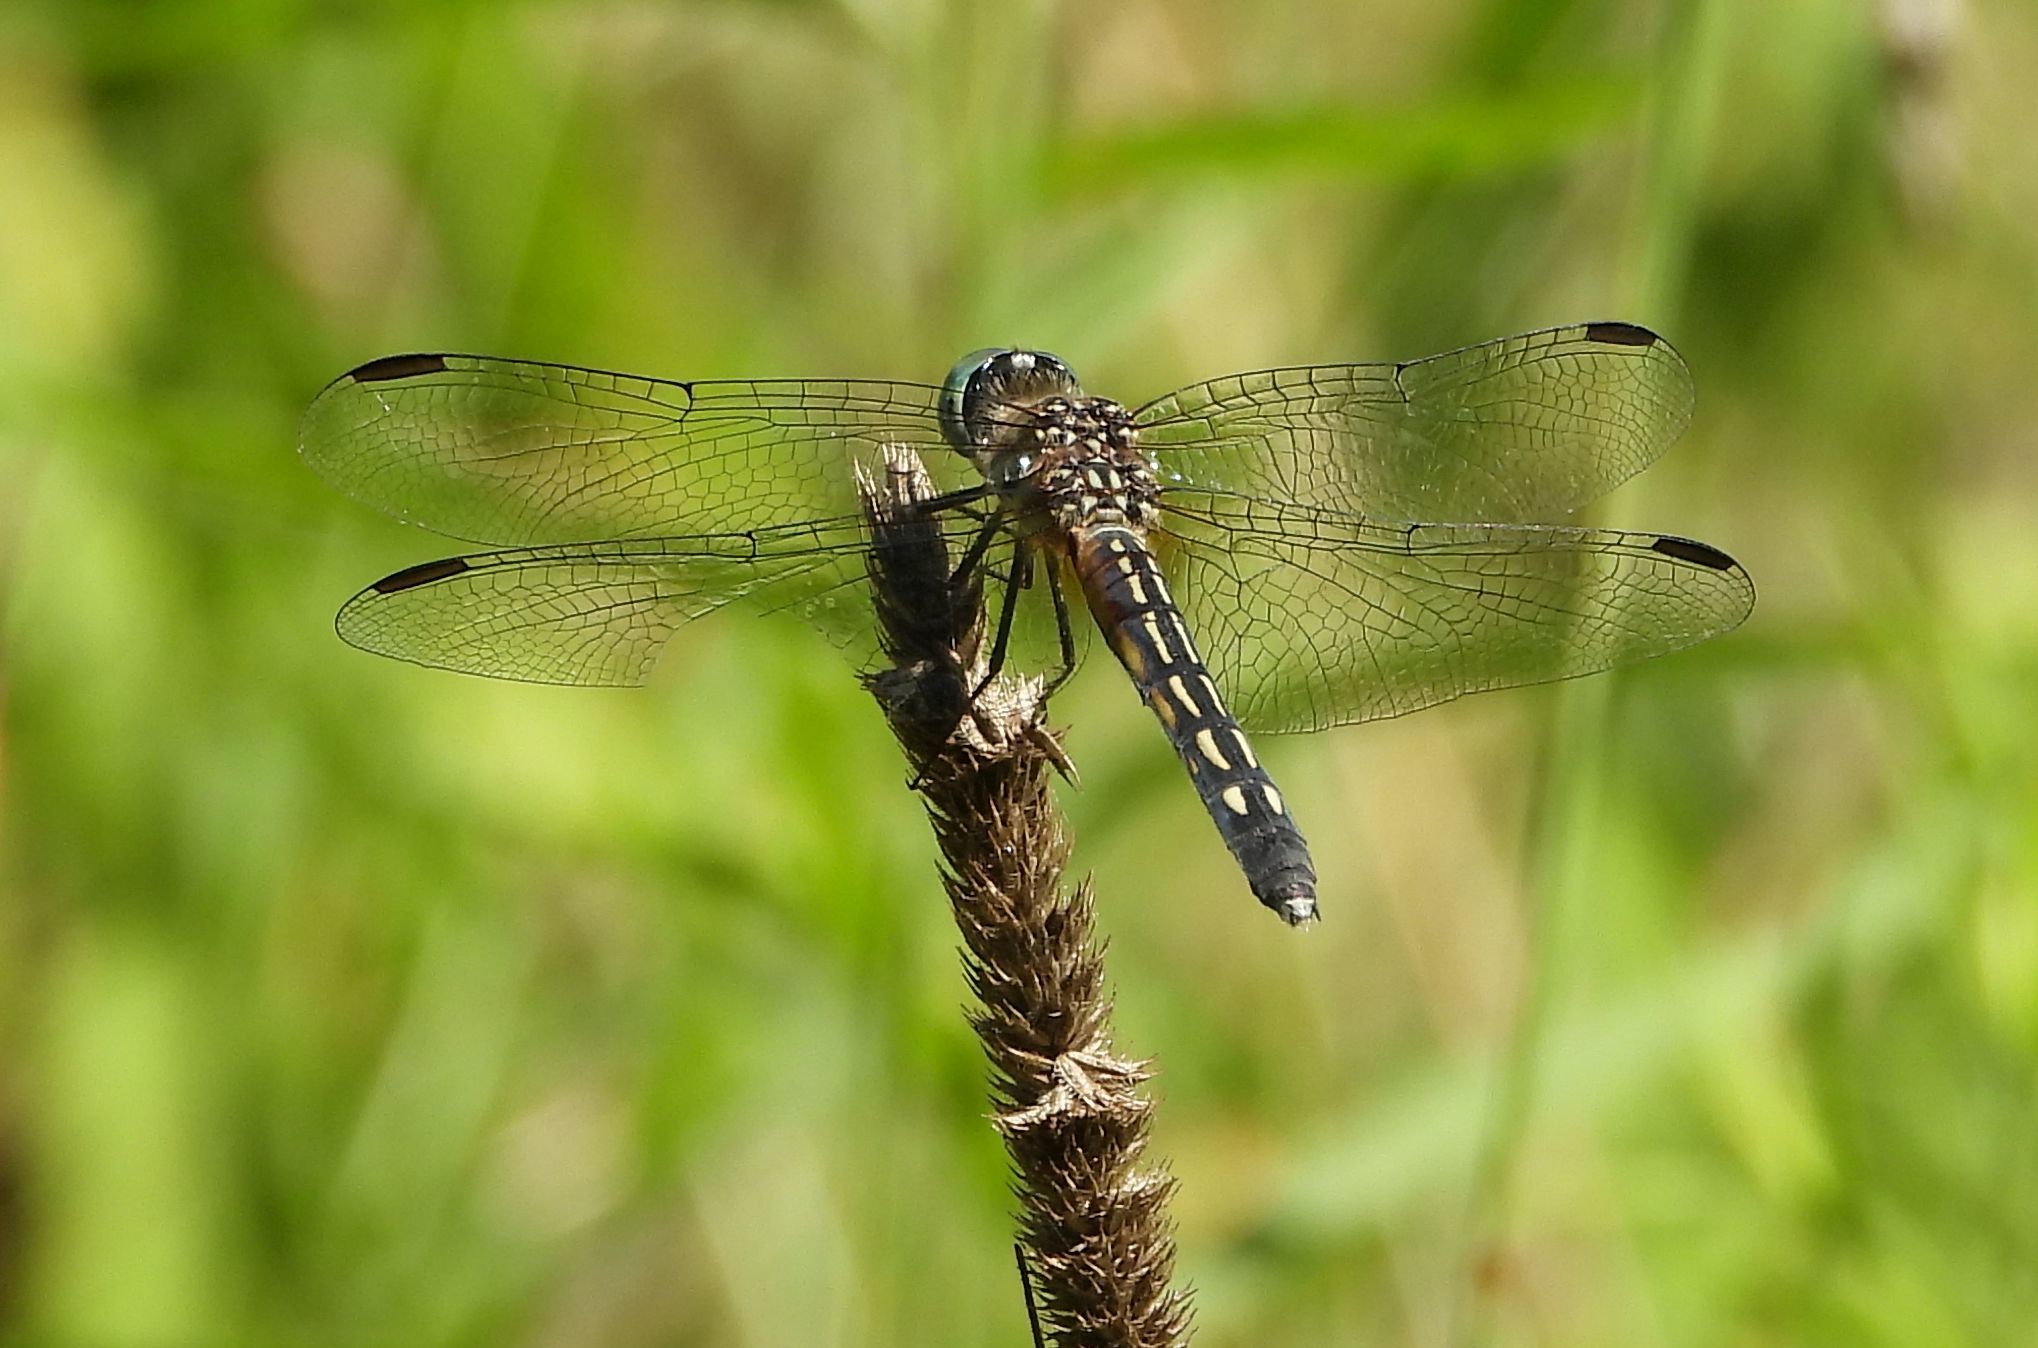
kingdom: Animalia
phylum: Arthropoda
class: Insecta
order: Odonata
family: Libellulidae
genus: Pachydiplax
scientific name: Pachydiplax longipennis
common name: Blue dasher
